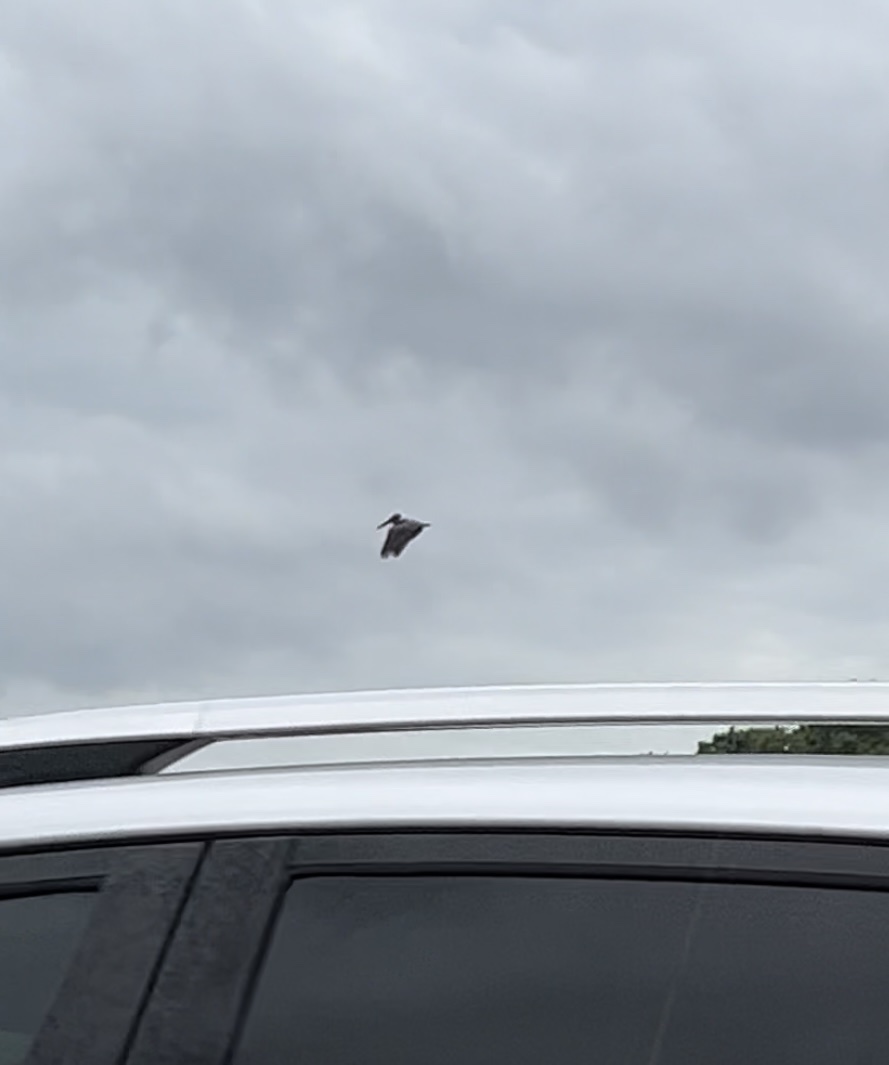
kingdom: Animalia
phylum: Chordata
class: Aves
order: Pelecaniformes
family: Pelecanidae
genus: Pelecanus
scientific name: Pelecanus occidentalis
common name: Brown pelican
